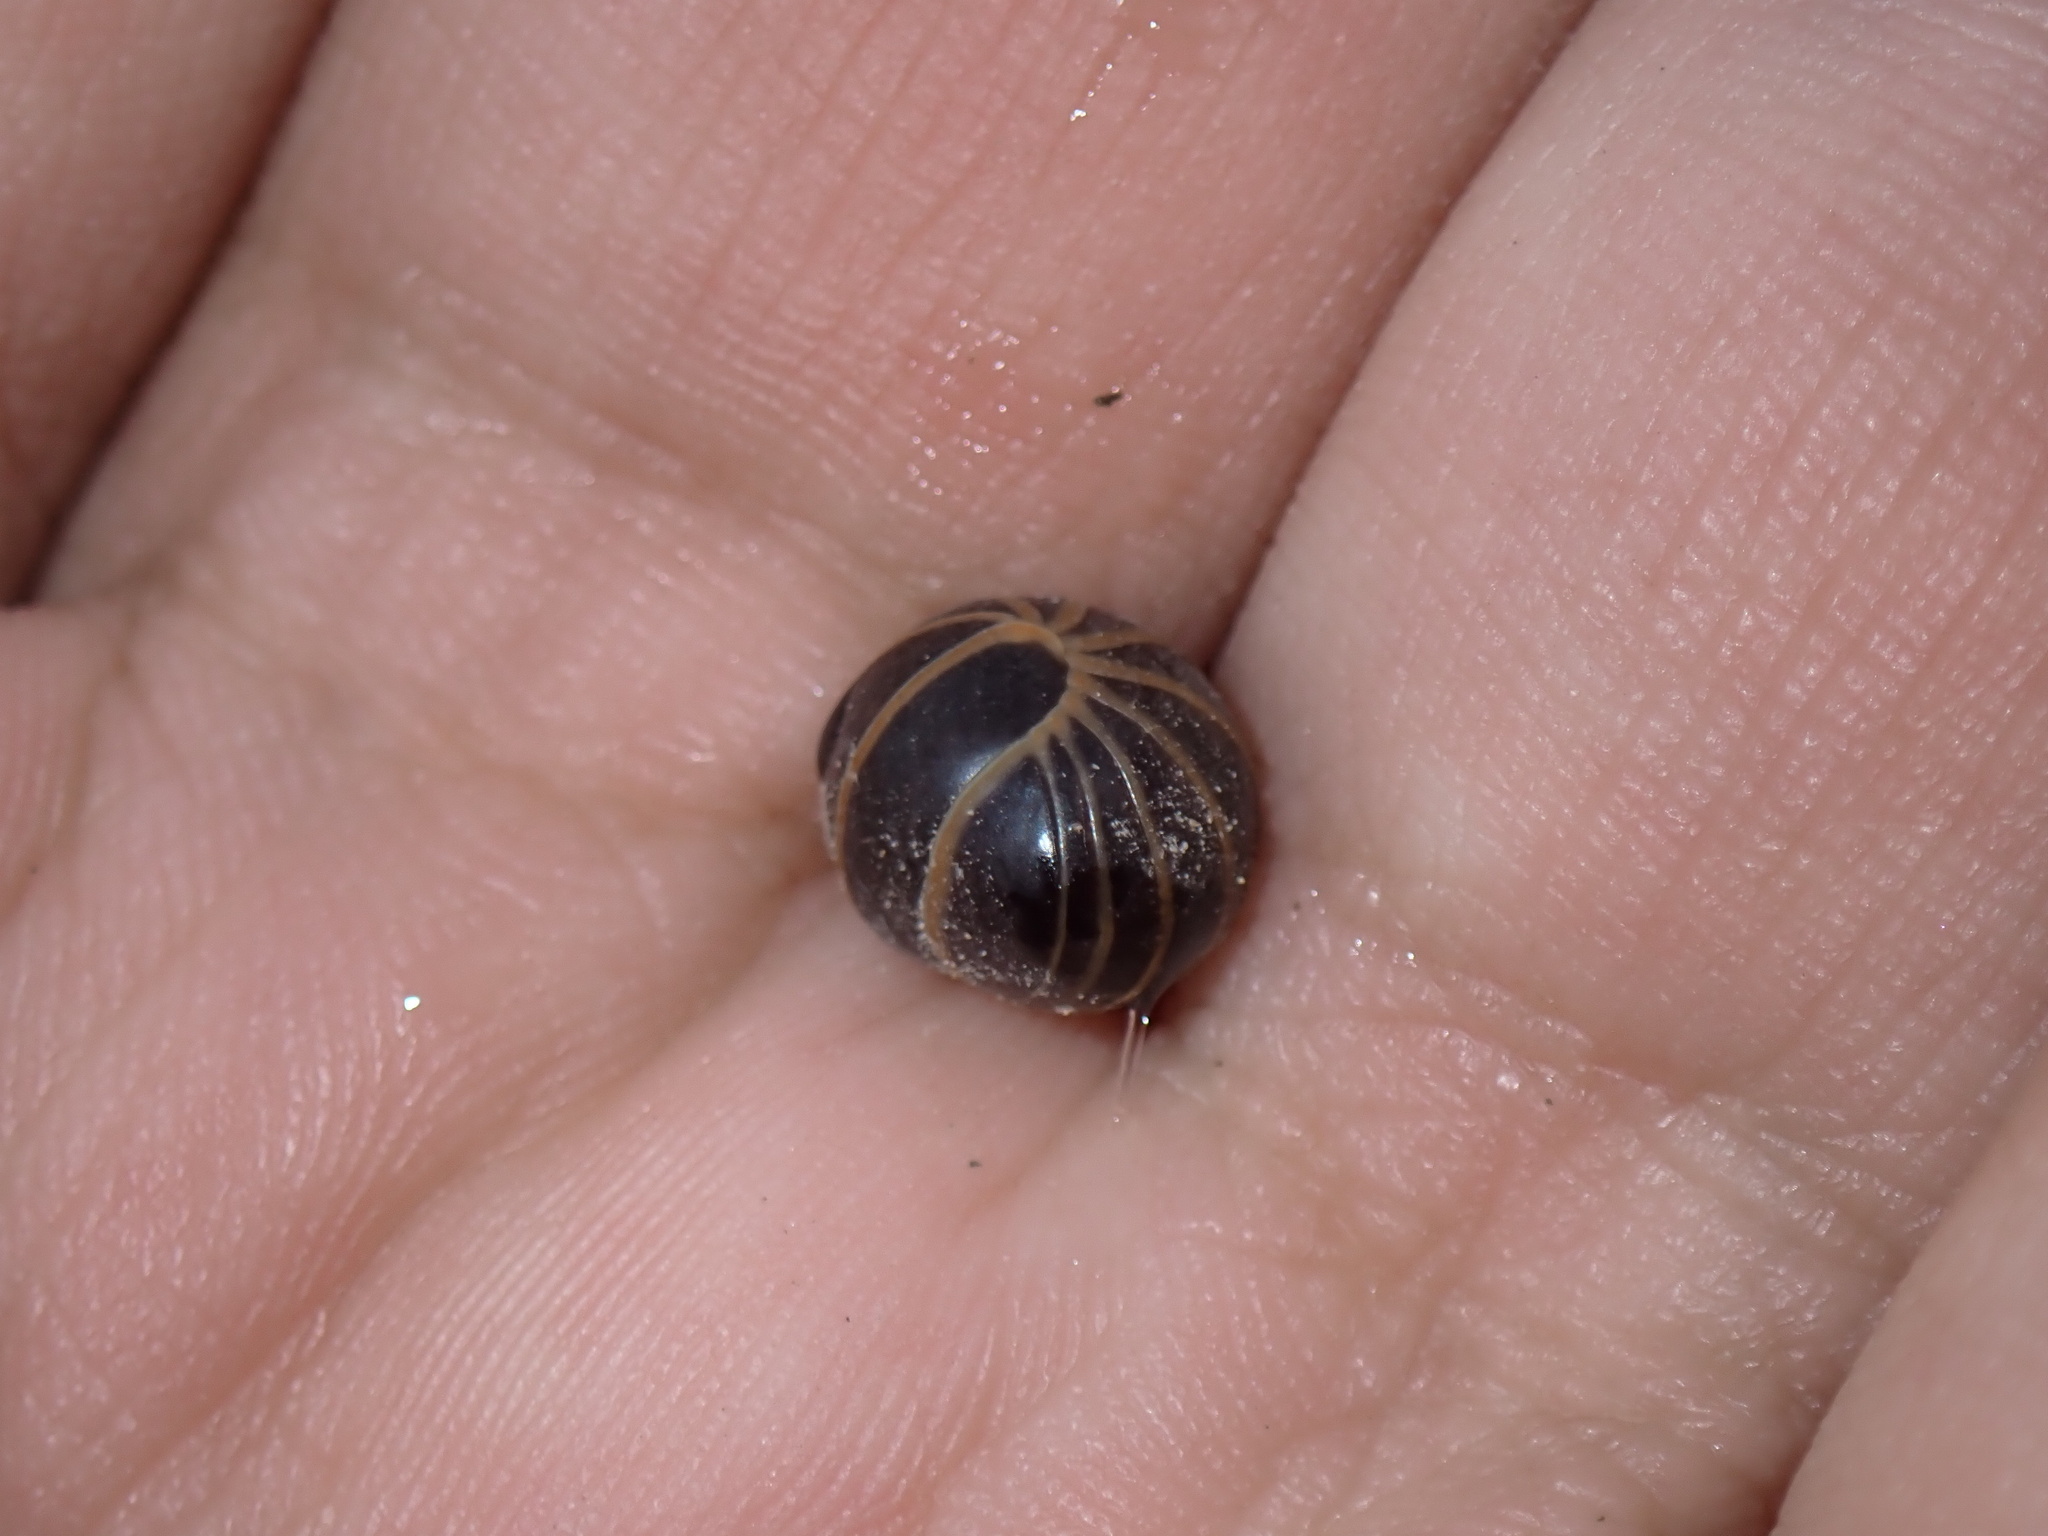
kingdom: Animalia
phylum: Arthropoda
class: Diplopoda
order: Glomerida
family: Glomeridae
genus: Glomeris
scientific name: Glomeris marginata
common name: Bordered pill millipede
